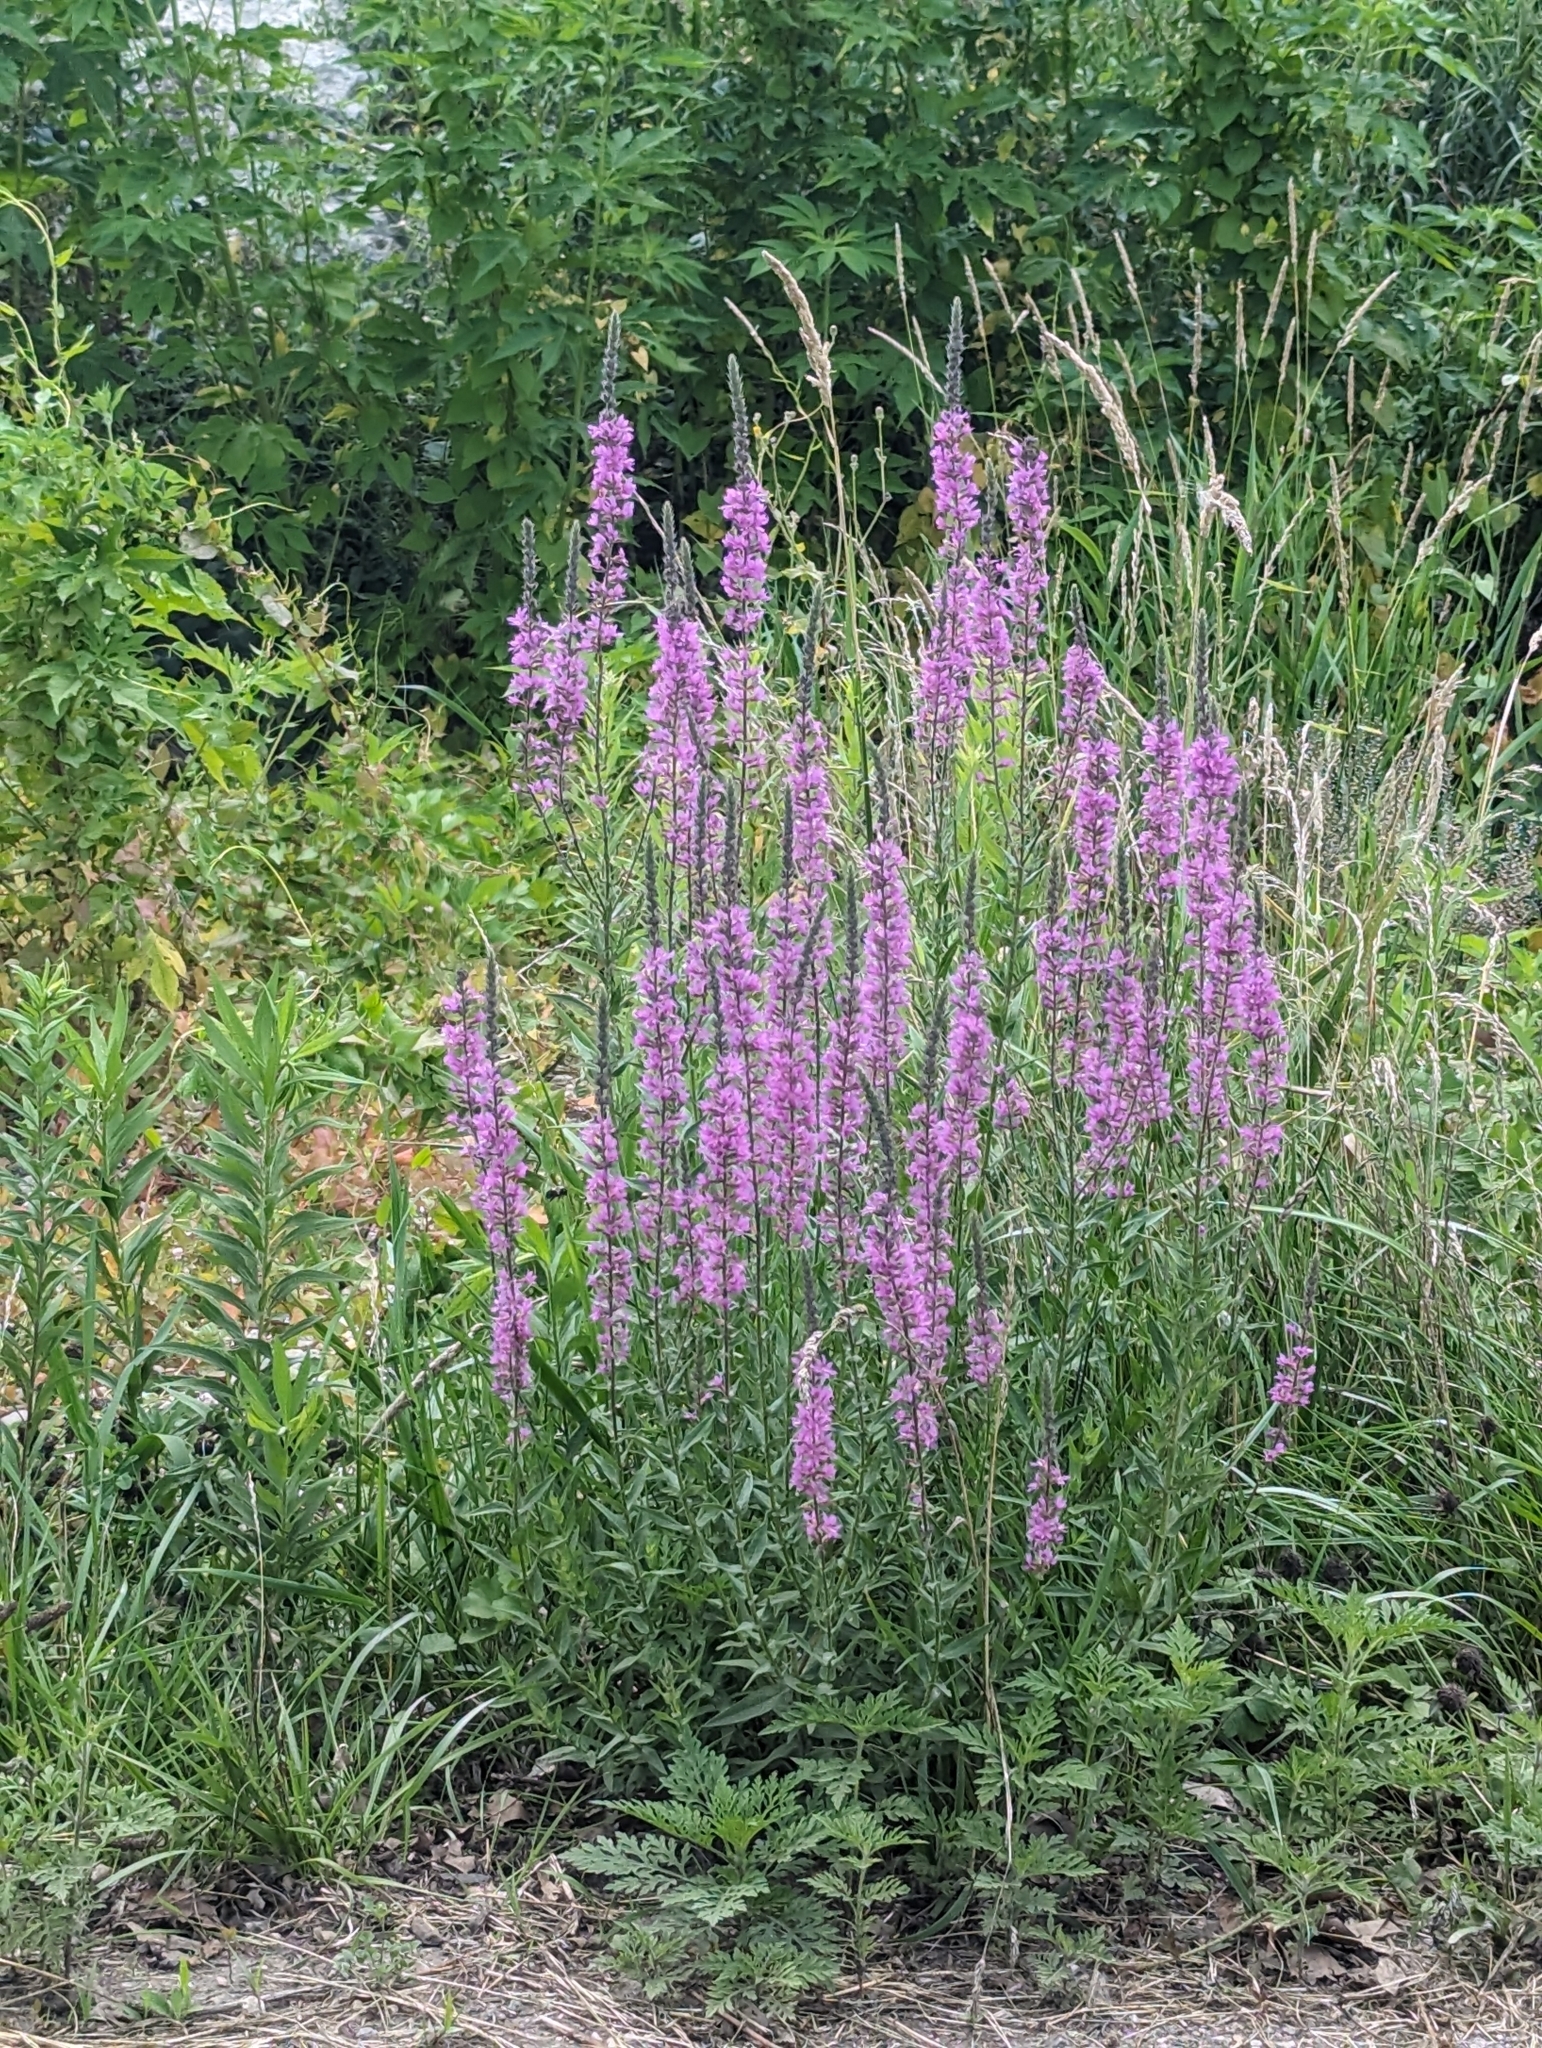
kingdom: Plantae
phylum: Tracheophyta
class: Magnoliopsida
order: Myrtales
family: Lythraceae
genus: Lythrum
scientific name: Lythrum salicaria
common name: Purple loosestrife
